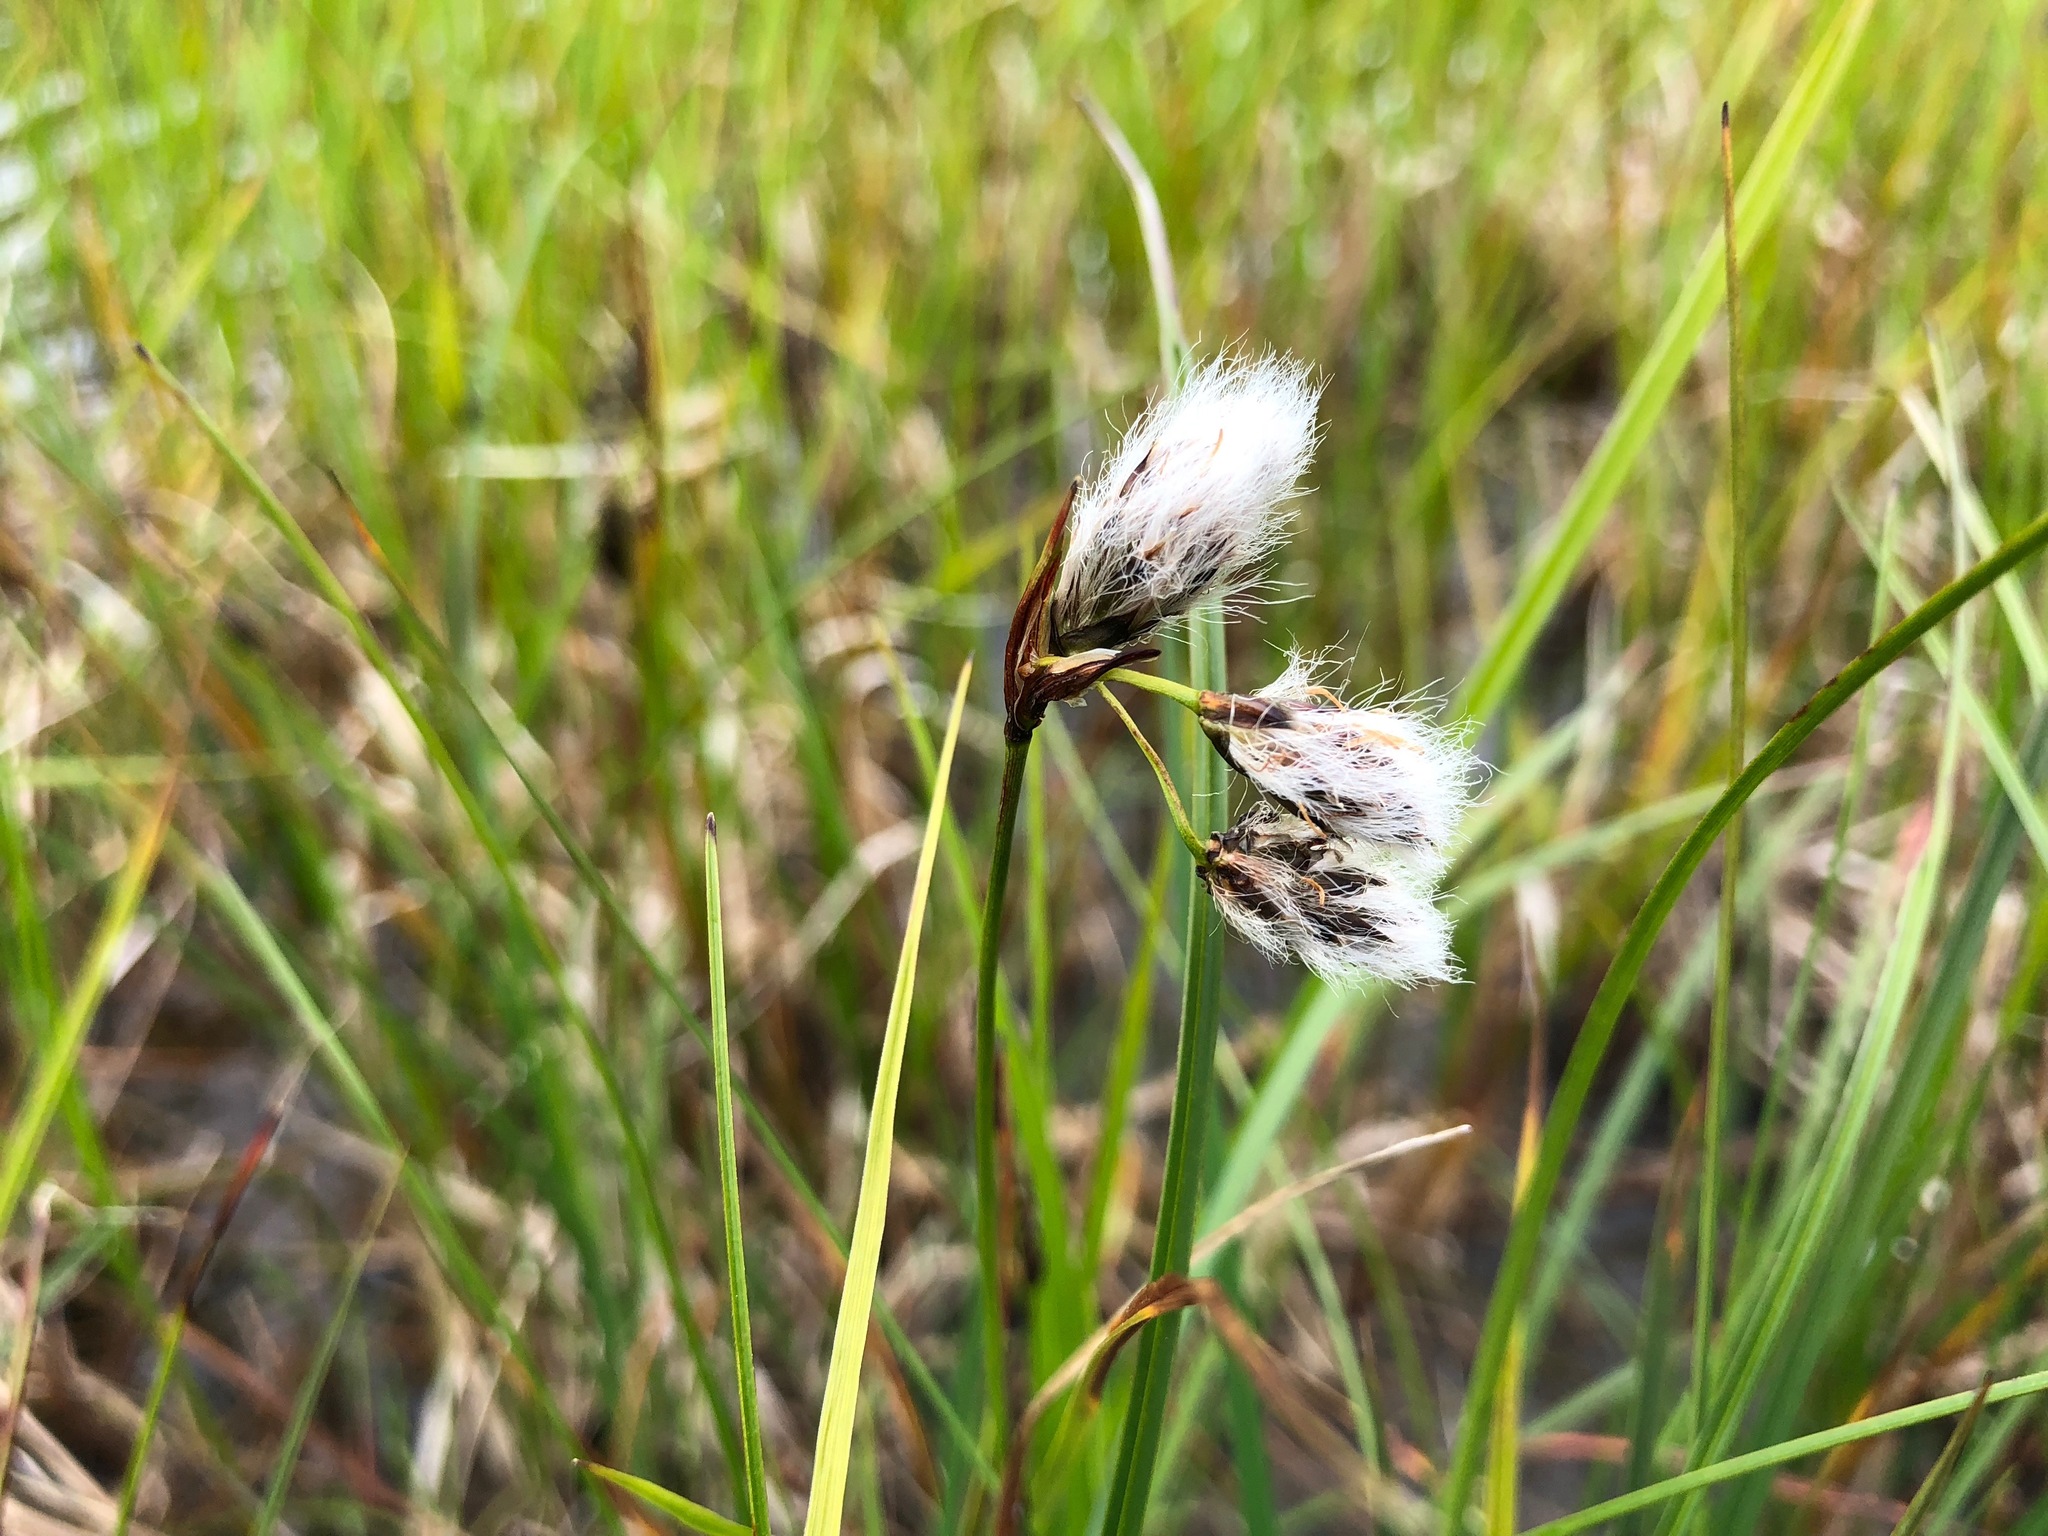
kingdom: Plantae
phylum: Tracheophyta
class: Liliopsida
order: Poales
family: Cyperaceae
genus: Eriophorum
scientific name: Eriophorum angustifolium
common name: Common cottongrass
